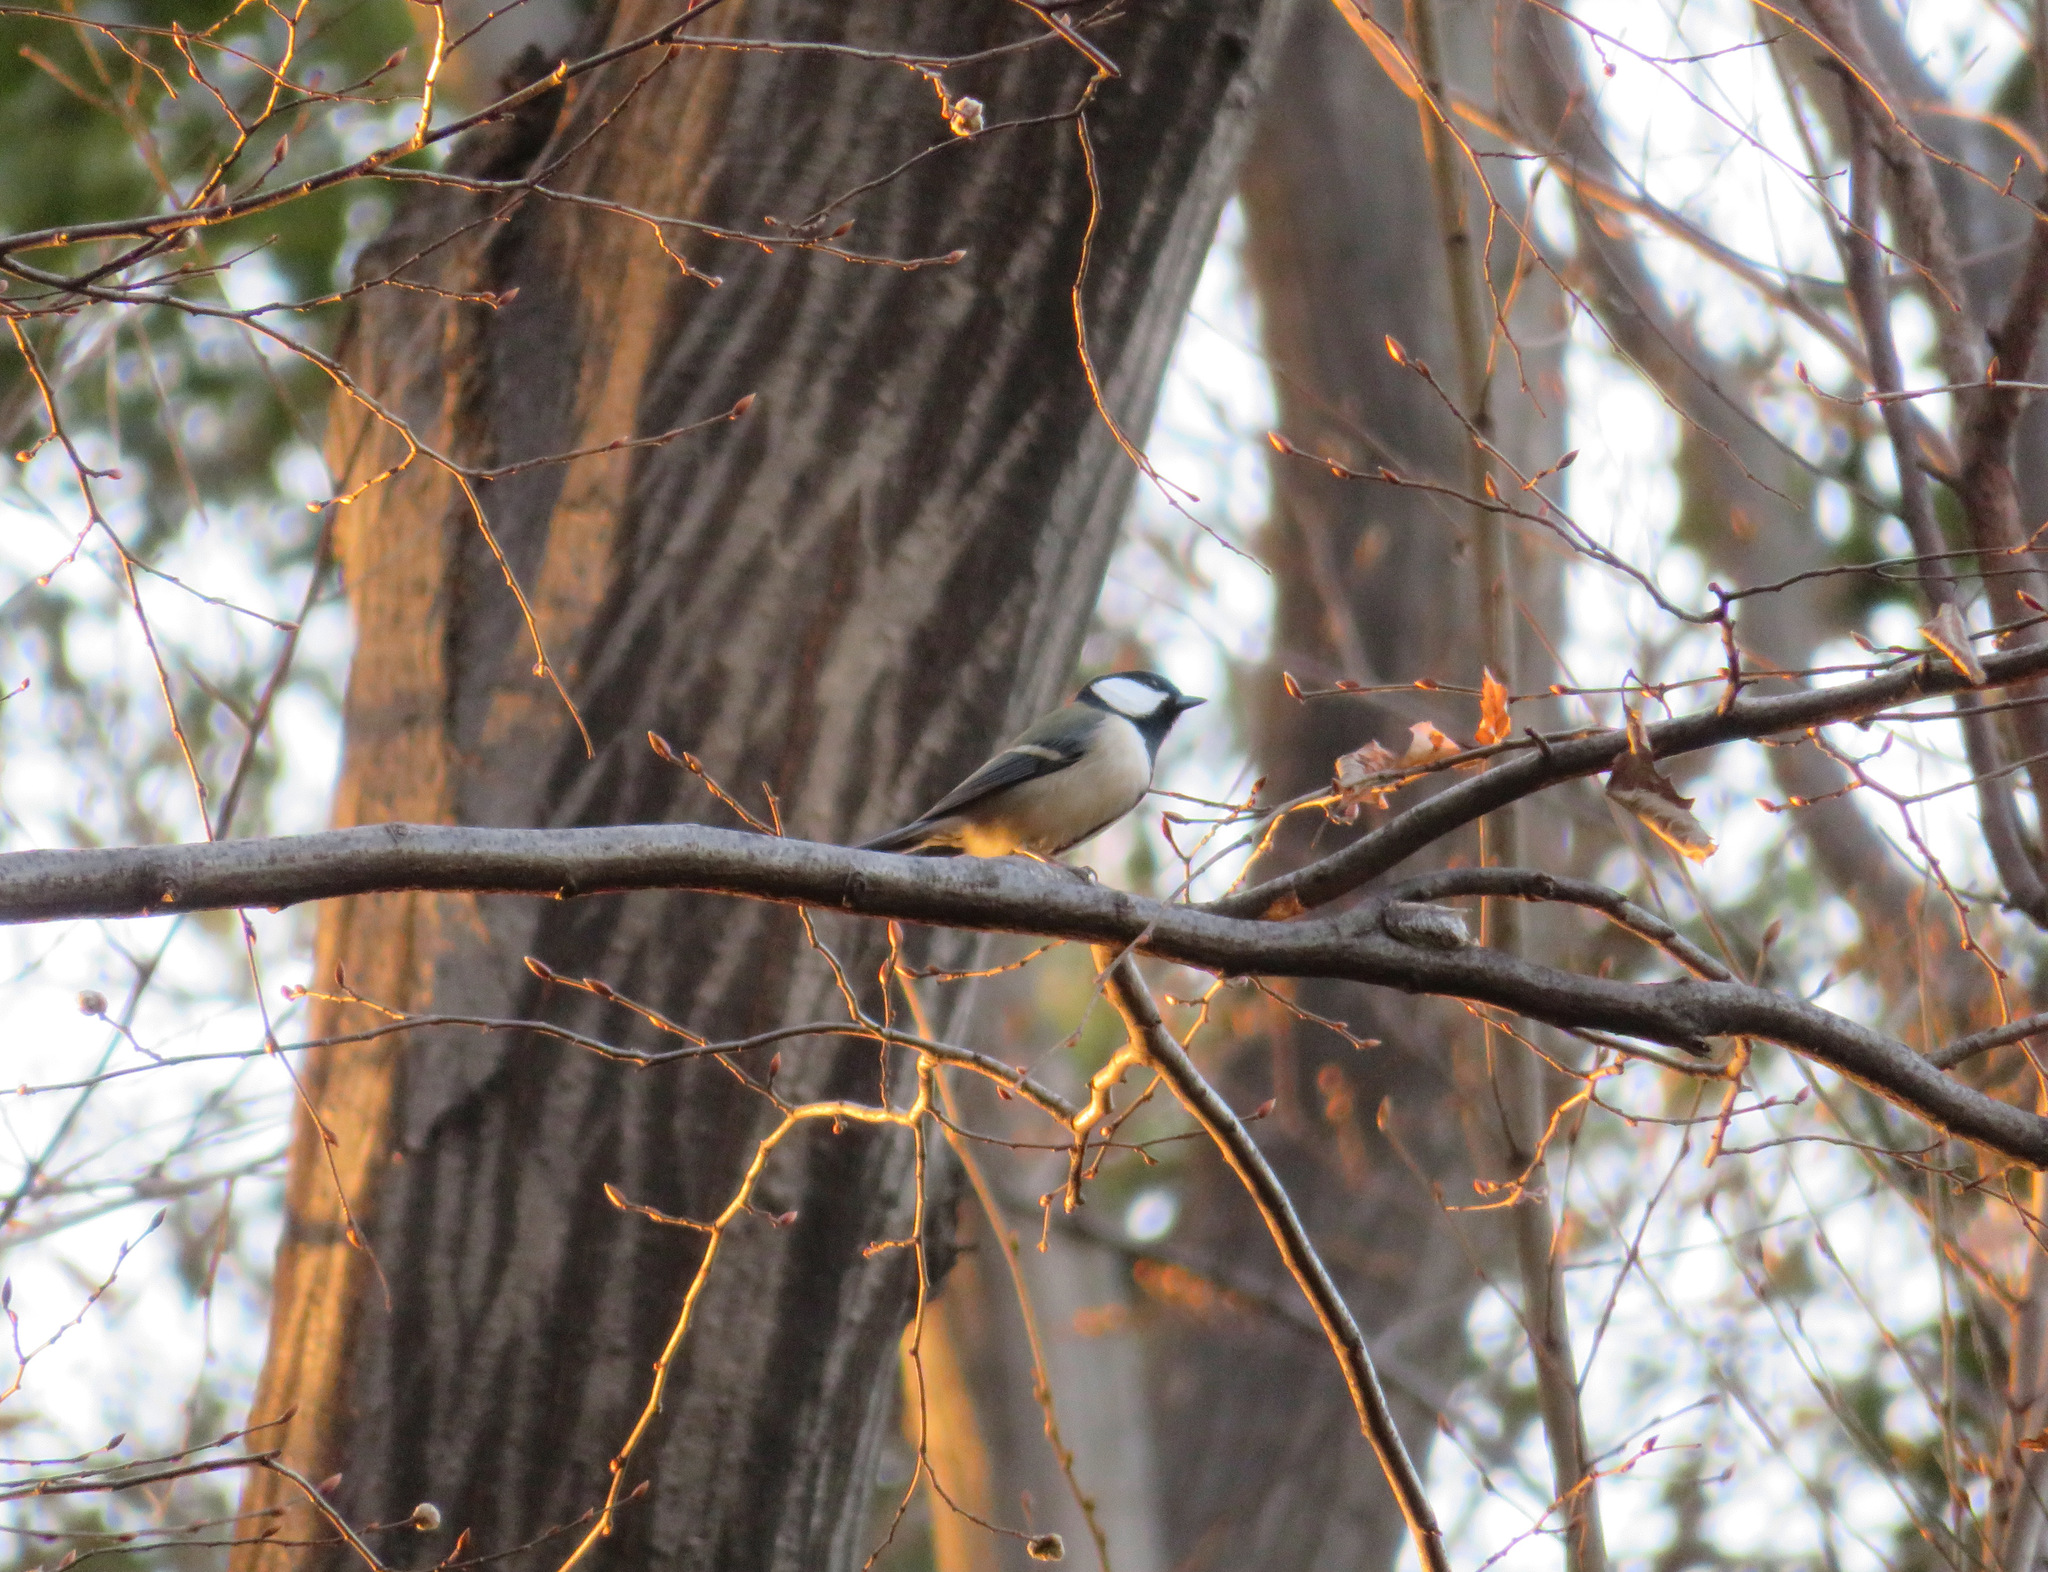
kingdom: Animalia
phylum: Chordata
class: Aves
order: Passeriformes
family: Paridae
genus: Parus
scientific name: Parus minor
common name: Japanese tit
